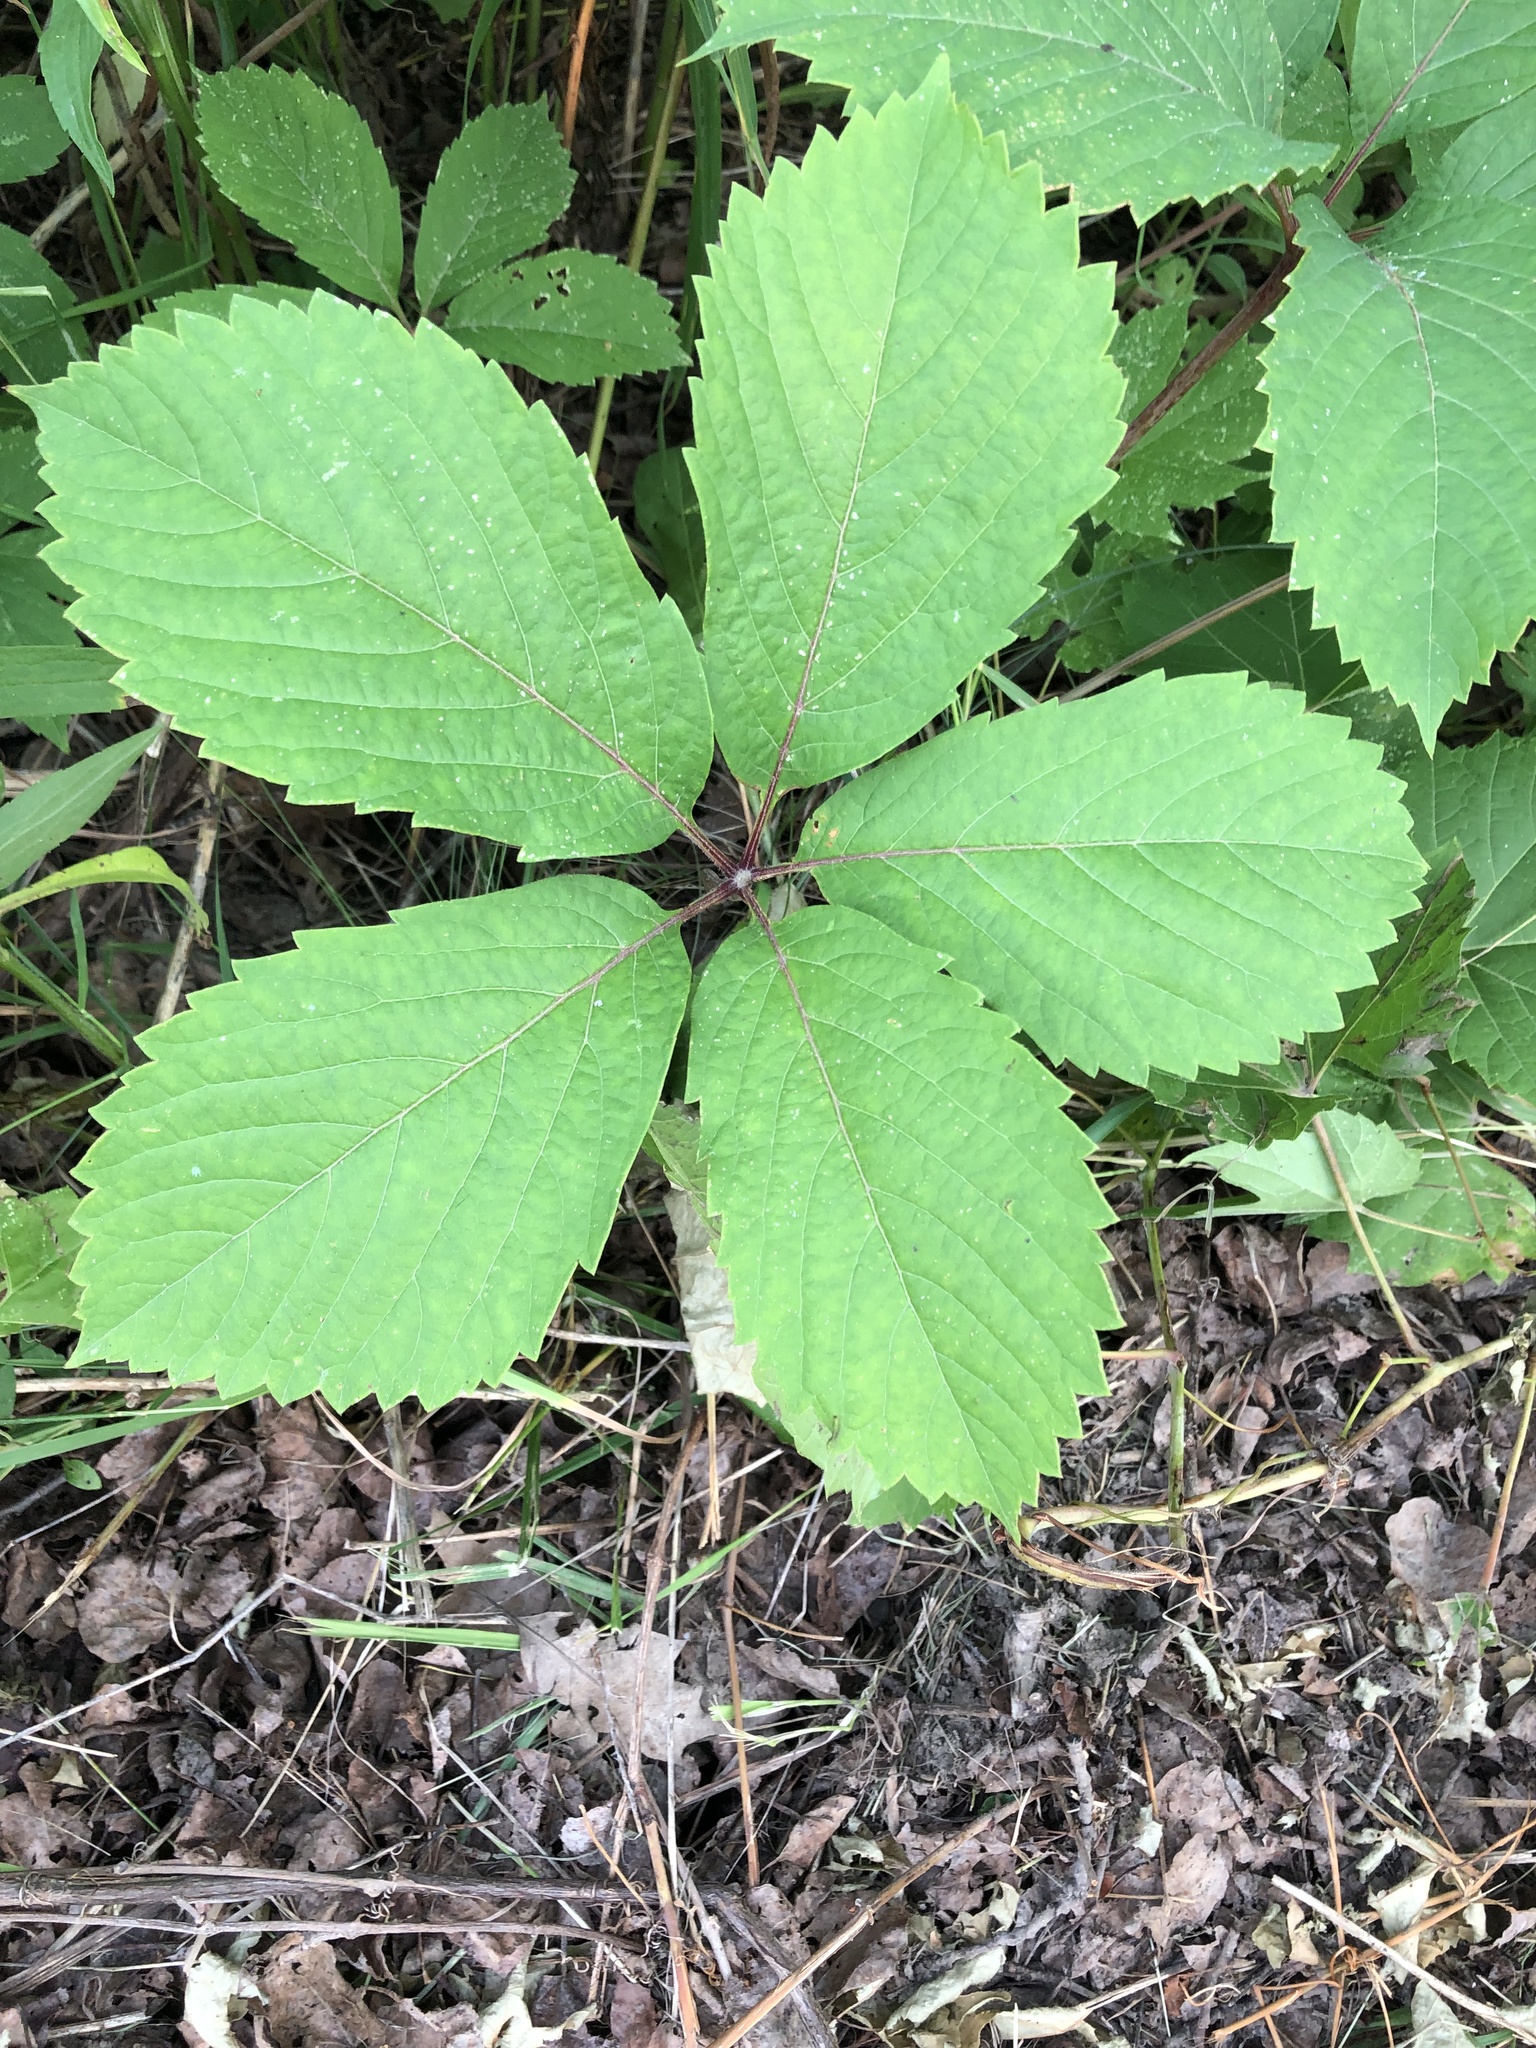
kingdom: Plantae
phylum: Tracheophyta
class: Magnoliopsida
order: Vitales
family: Vitaceae
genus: Parthenocissus
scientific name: Parthenocissus inserta
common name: False virginia-creeper
